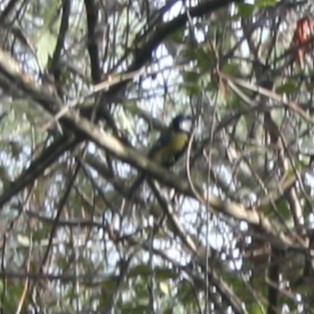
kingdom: Animalia
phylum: Chordata
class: Aves
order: Passeriformes
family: Paridae
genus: Parus
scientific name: Parus major
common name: Great tit
